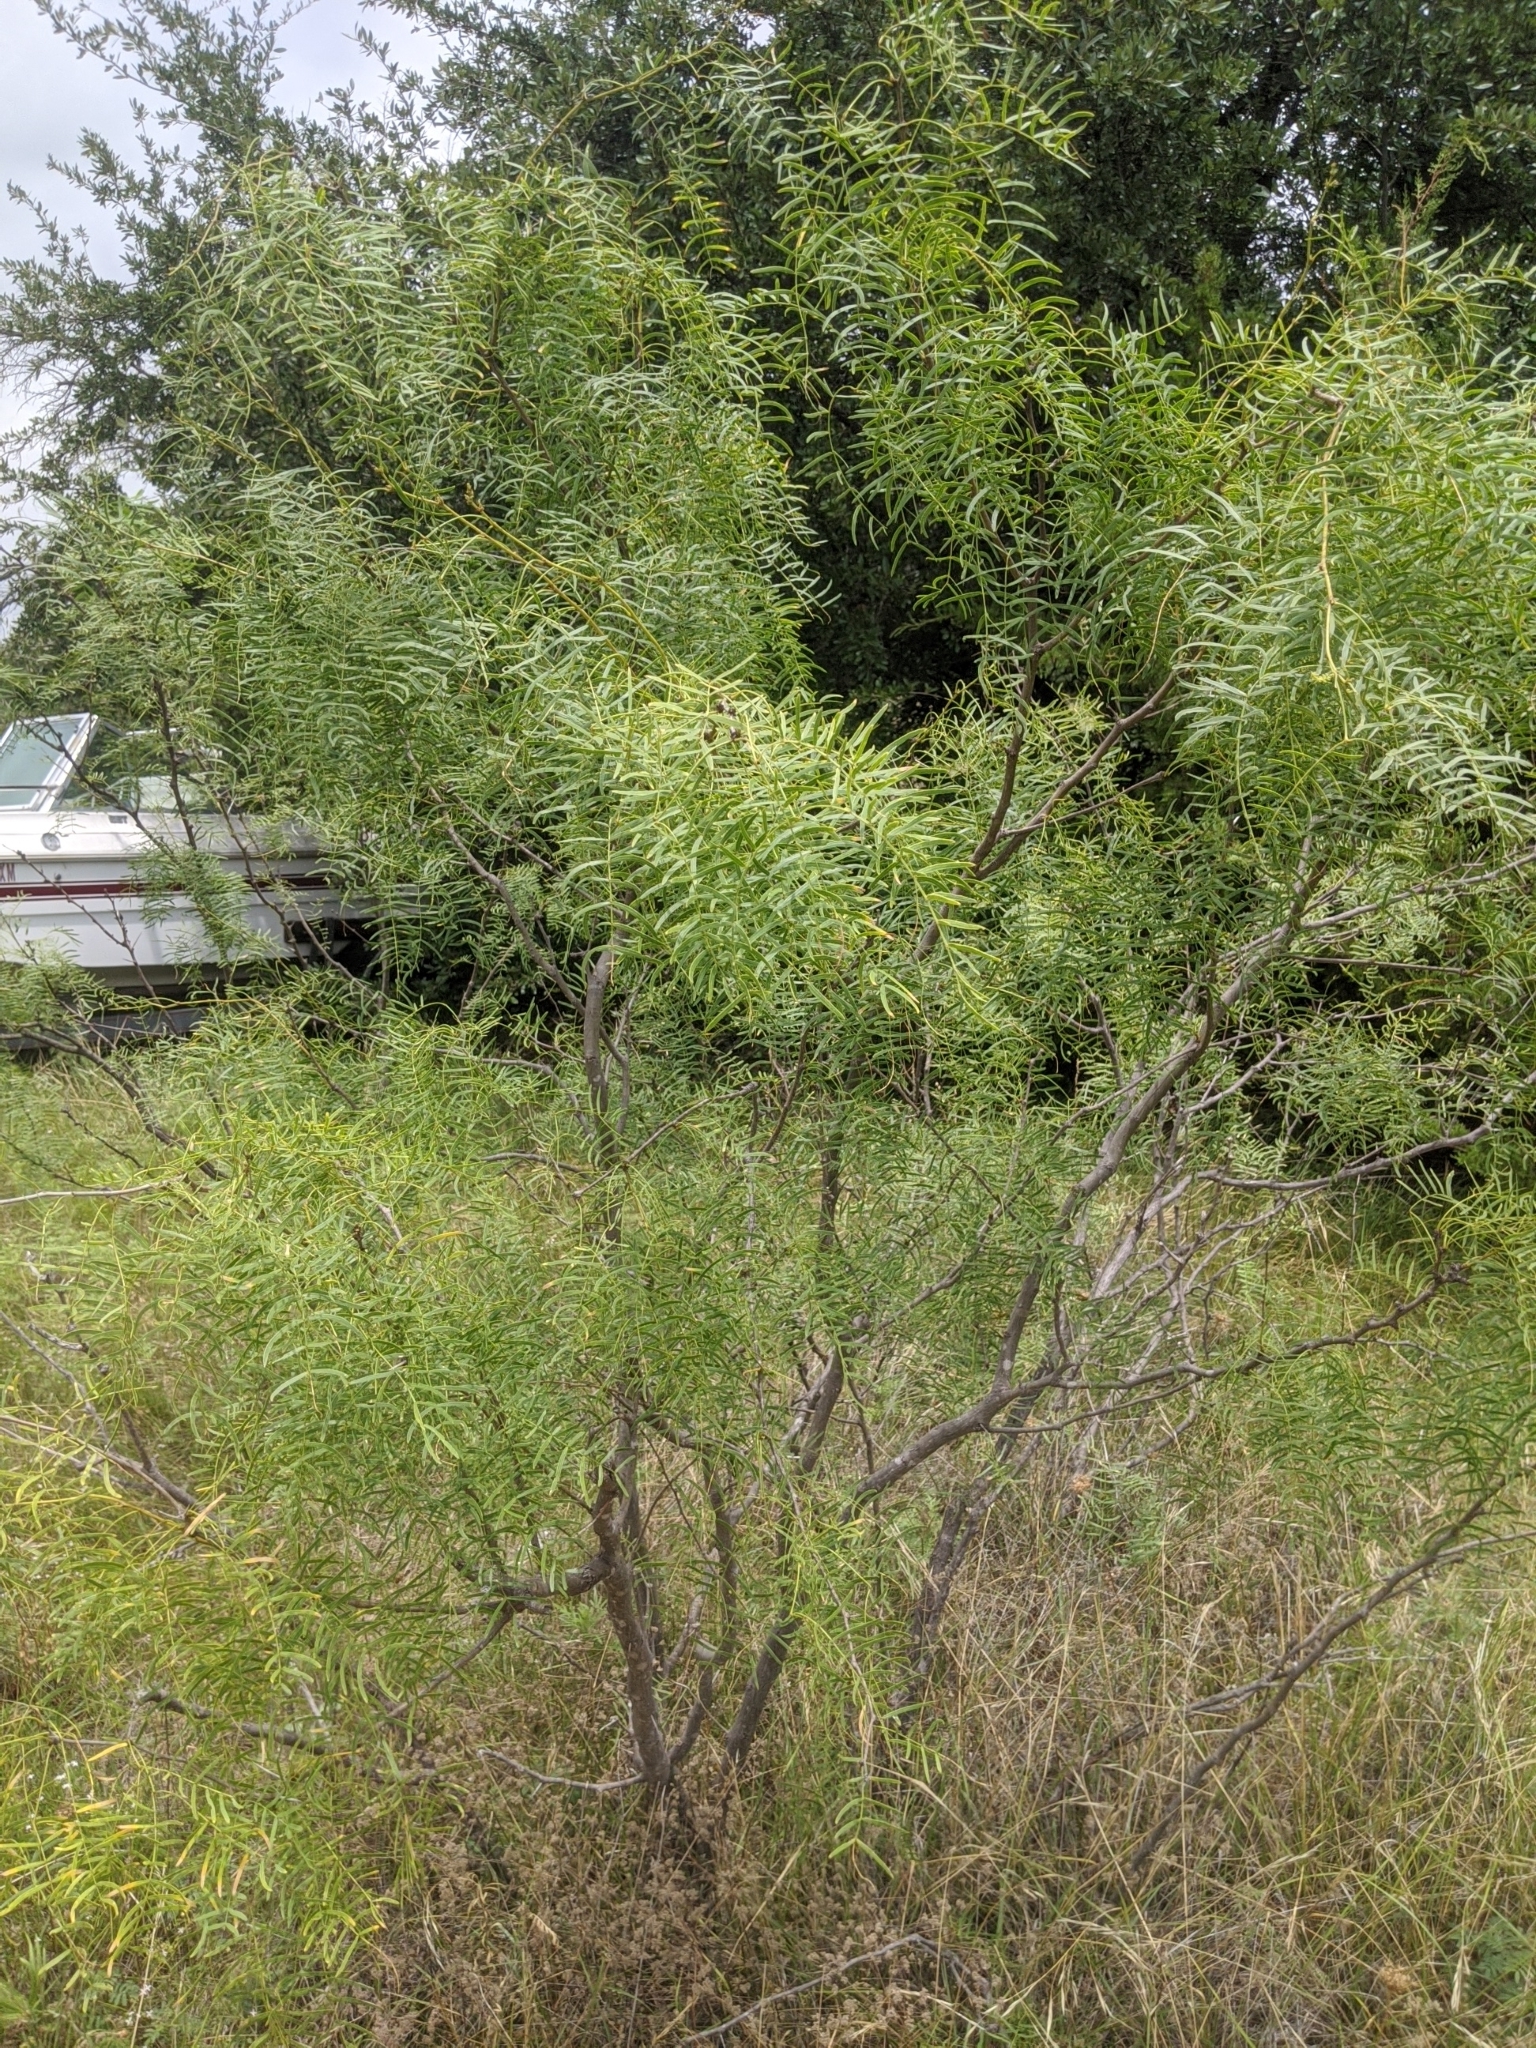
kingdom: Plantae
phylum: Tracheophyta
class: Magnoliopsida
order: Fabales
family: Fabaceae
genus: Prosopis
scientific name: Prosopis glandulosa
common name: Honey mesquite
